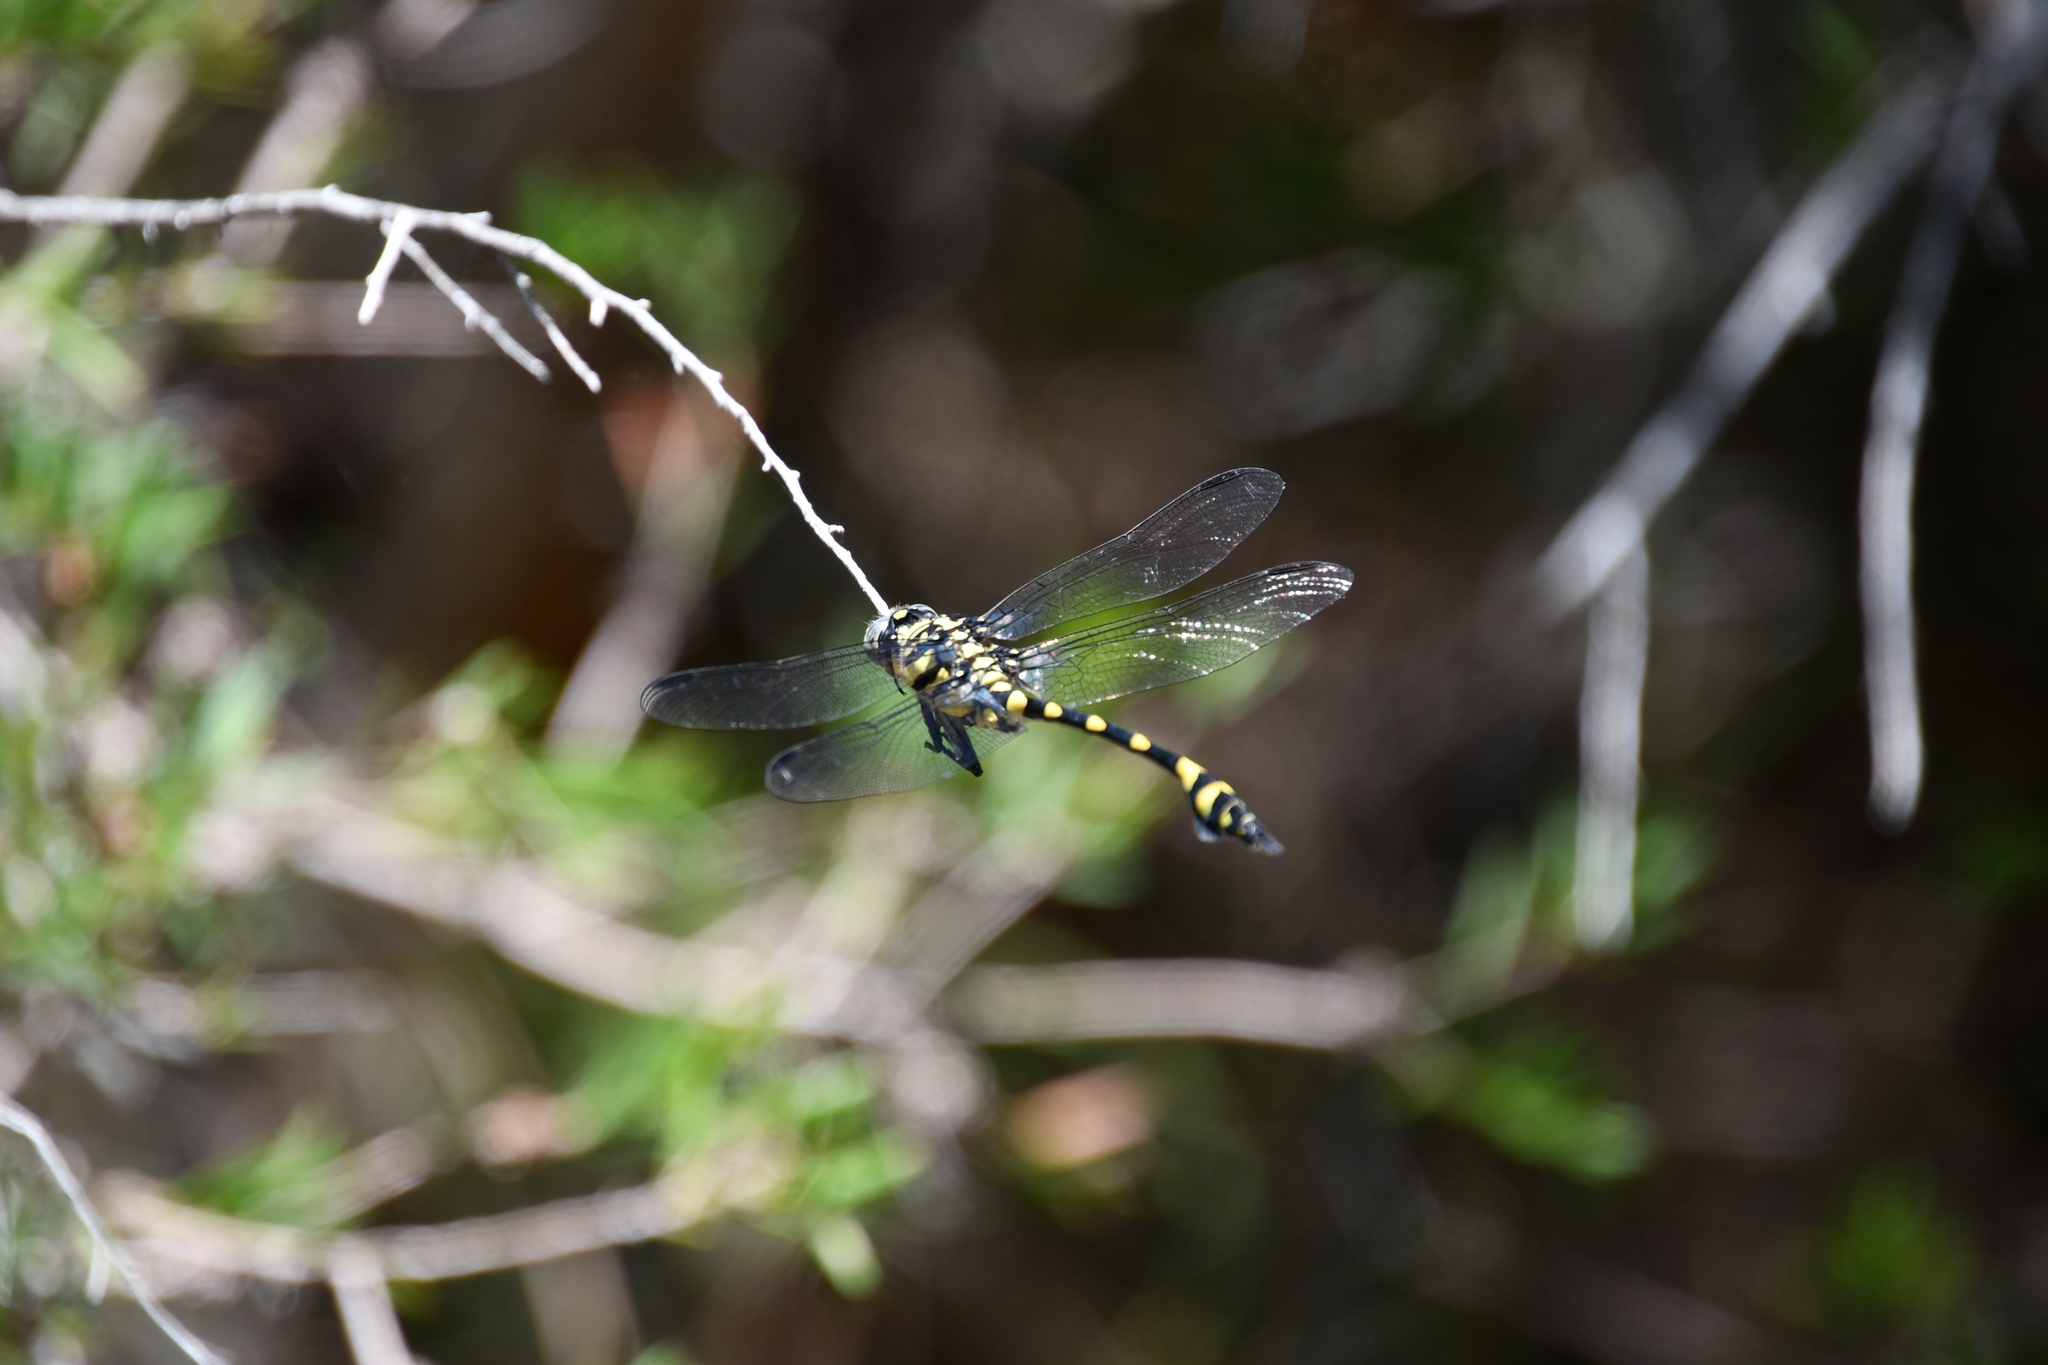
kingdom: Animalia
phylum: Arthropoda
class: Insecta
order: Odonata
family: Gomphidae
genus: Ictinogomphus
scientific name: Ictinogomphus australis
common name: Australian tiger
